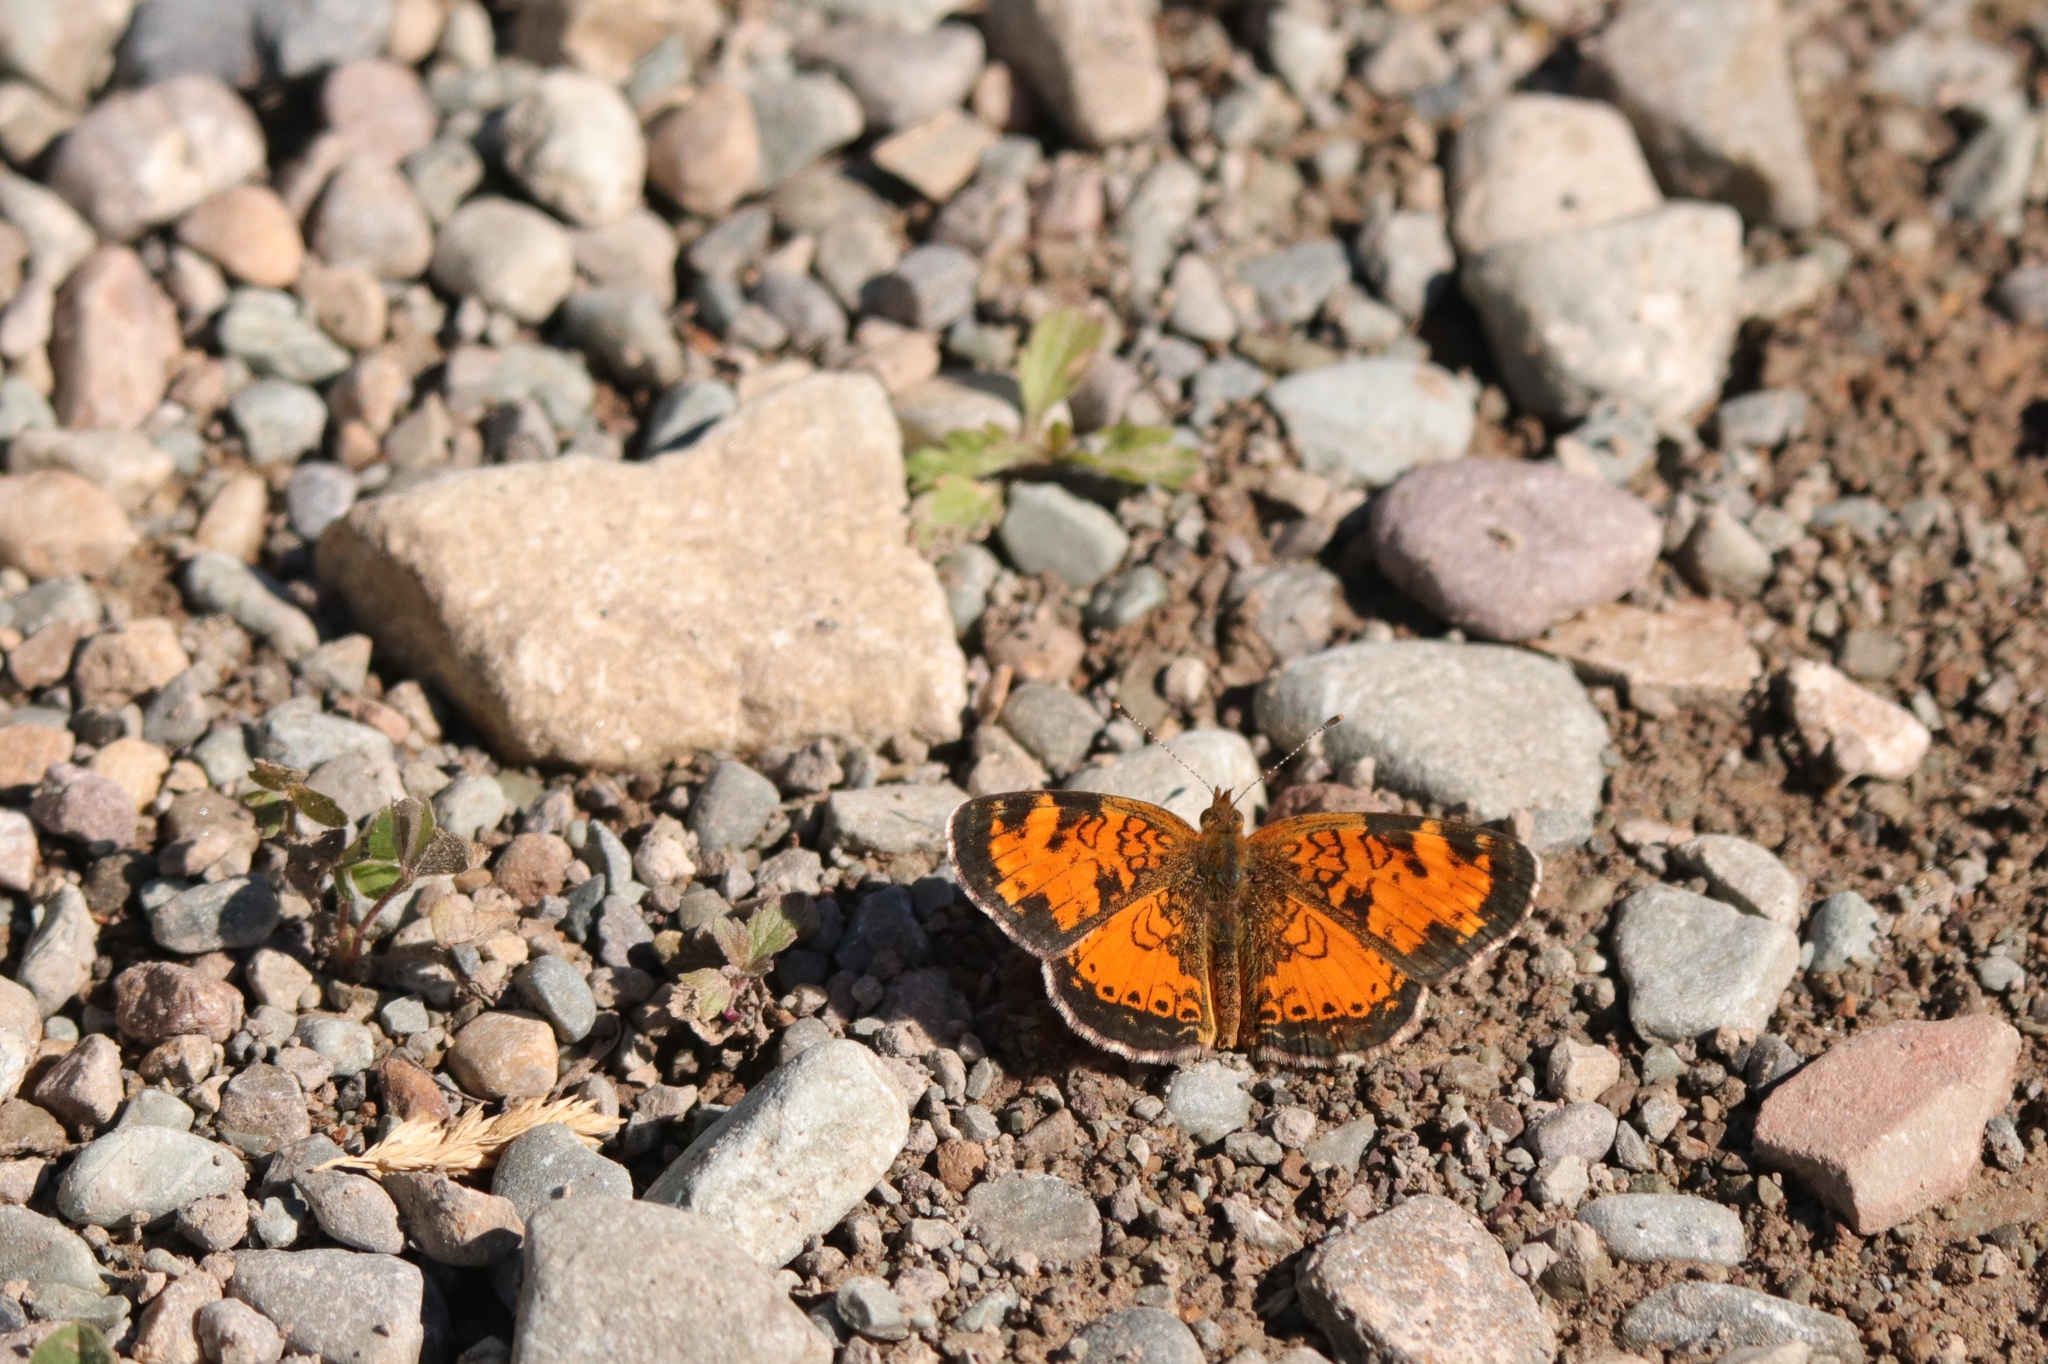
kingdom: Animalia
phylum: Arthropoda
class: Insecta
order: Lepidoptera
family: Nymphalidae
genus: Phyciodes
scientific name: Phyciodes tharos
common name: Pearl crescent
